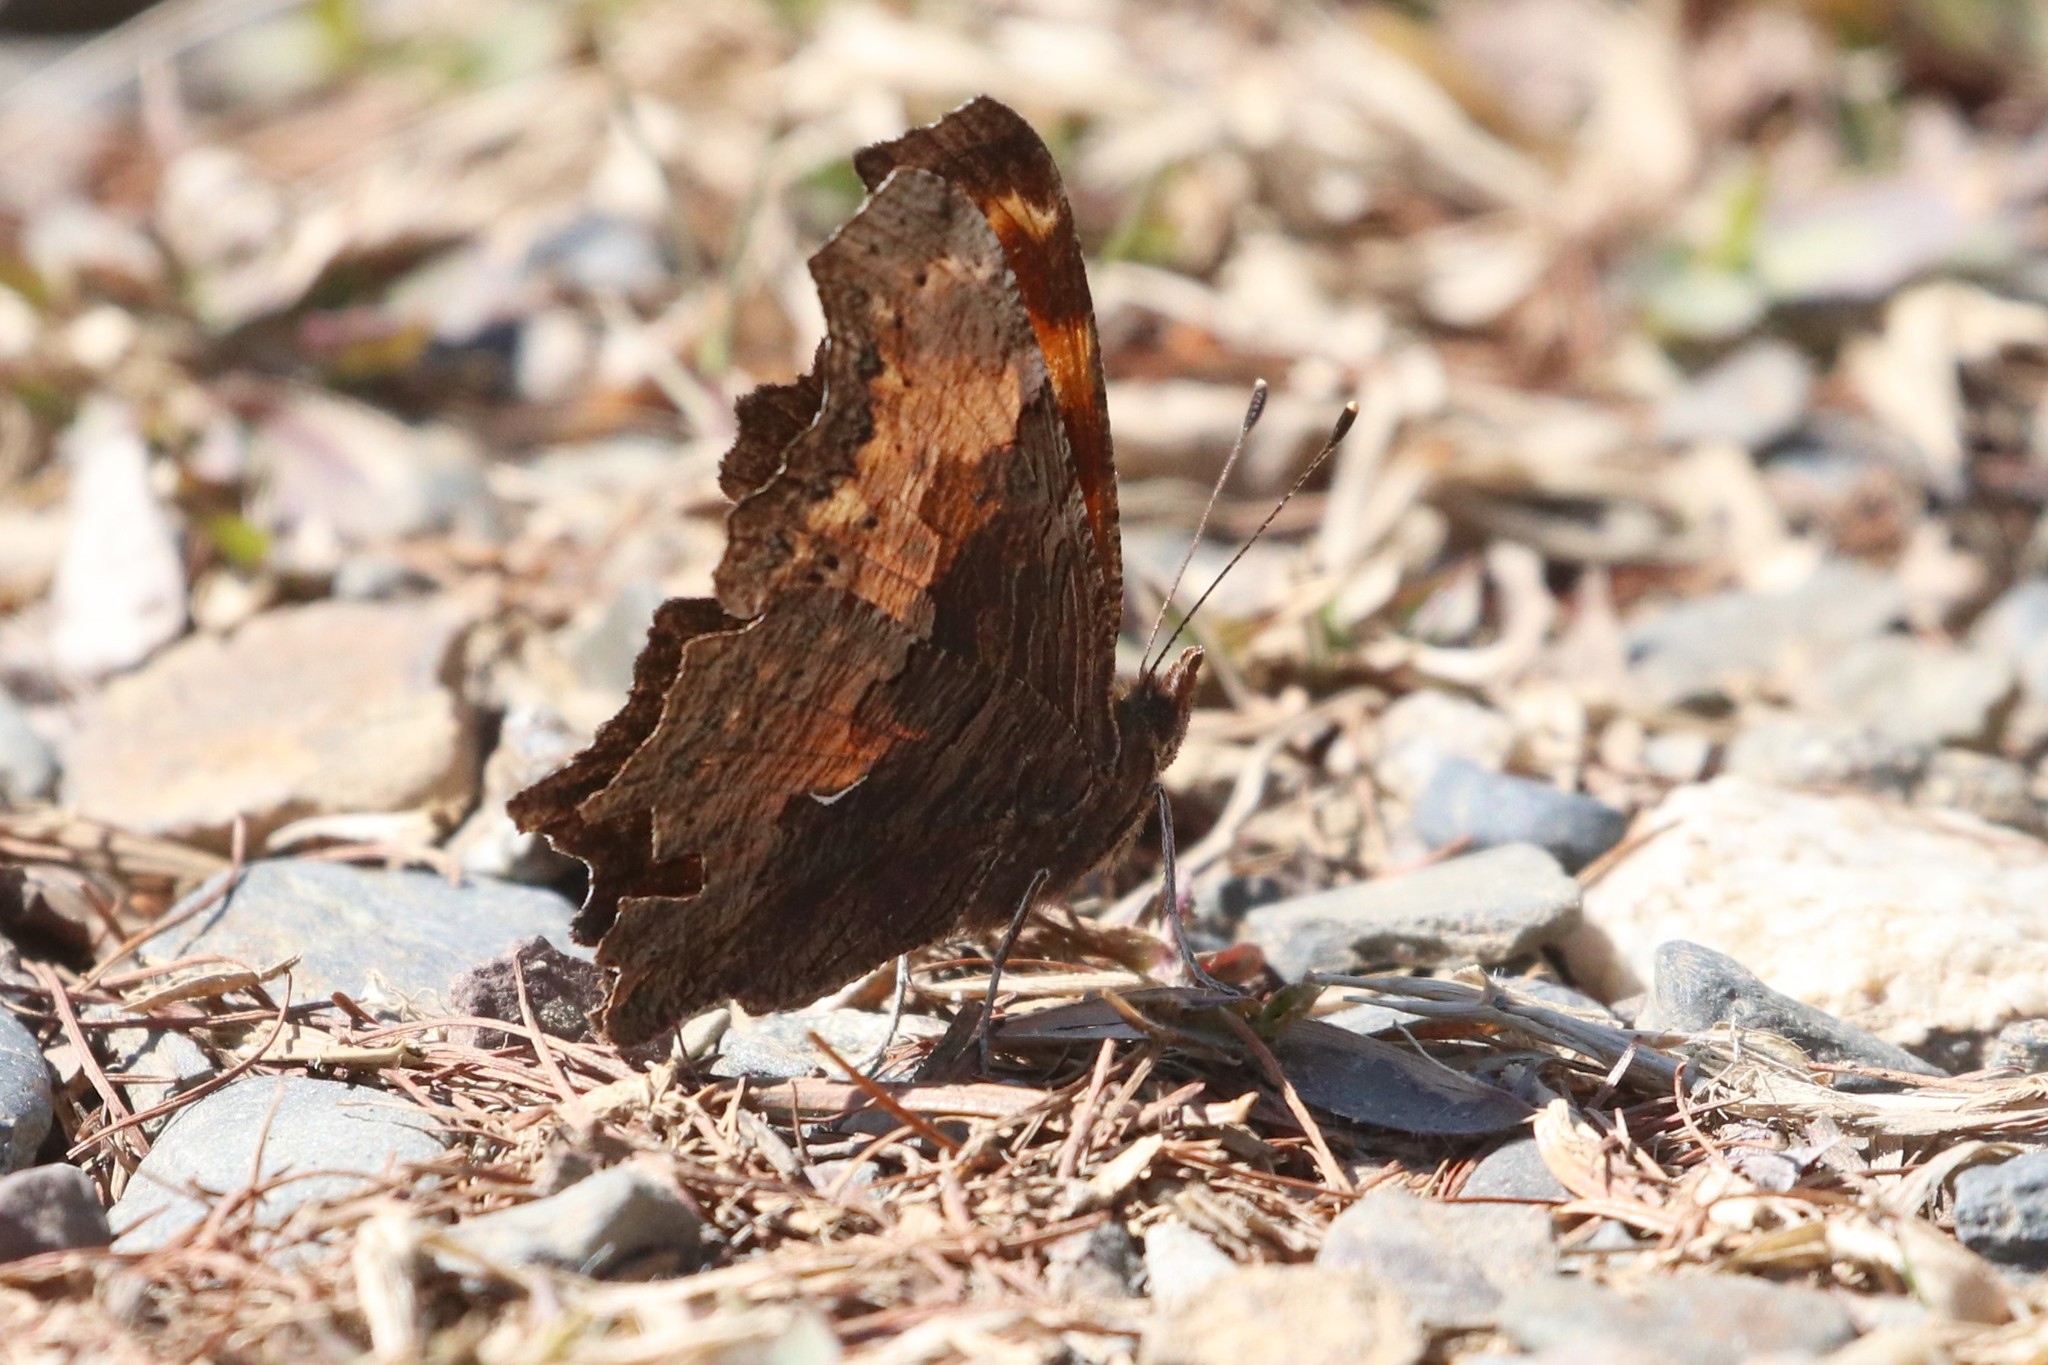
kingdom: Animalia
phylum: Arthropoda
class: Insecta
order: Lepidoptera
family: Nymphalidae
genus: Polygonia
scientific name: Polygonia progne
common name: Gray comma
